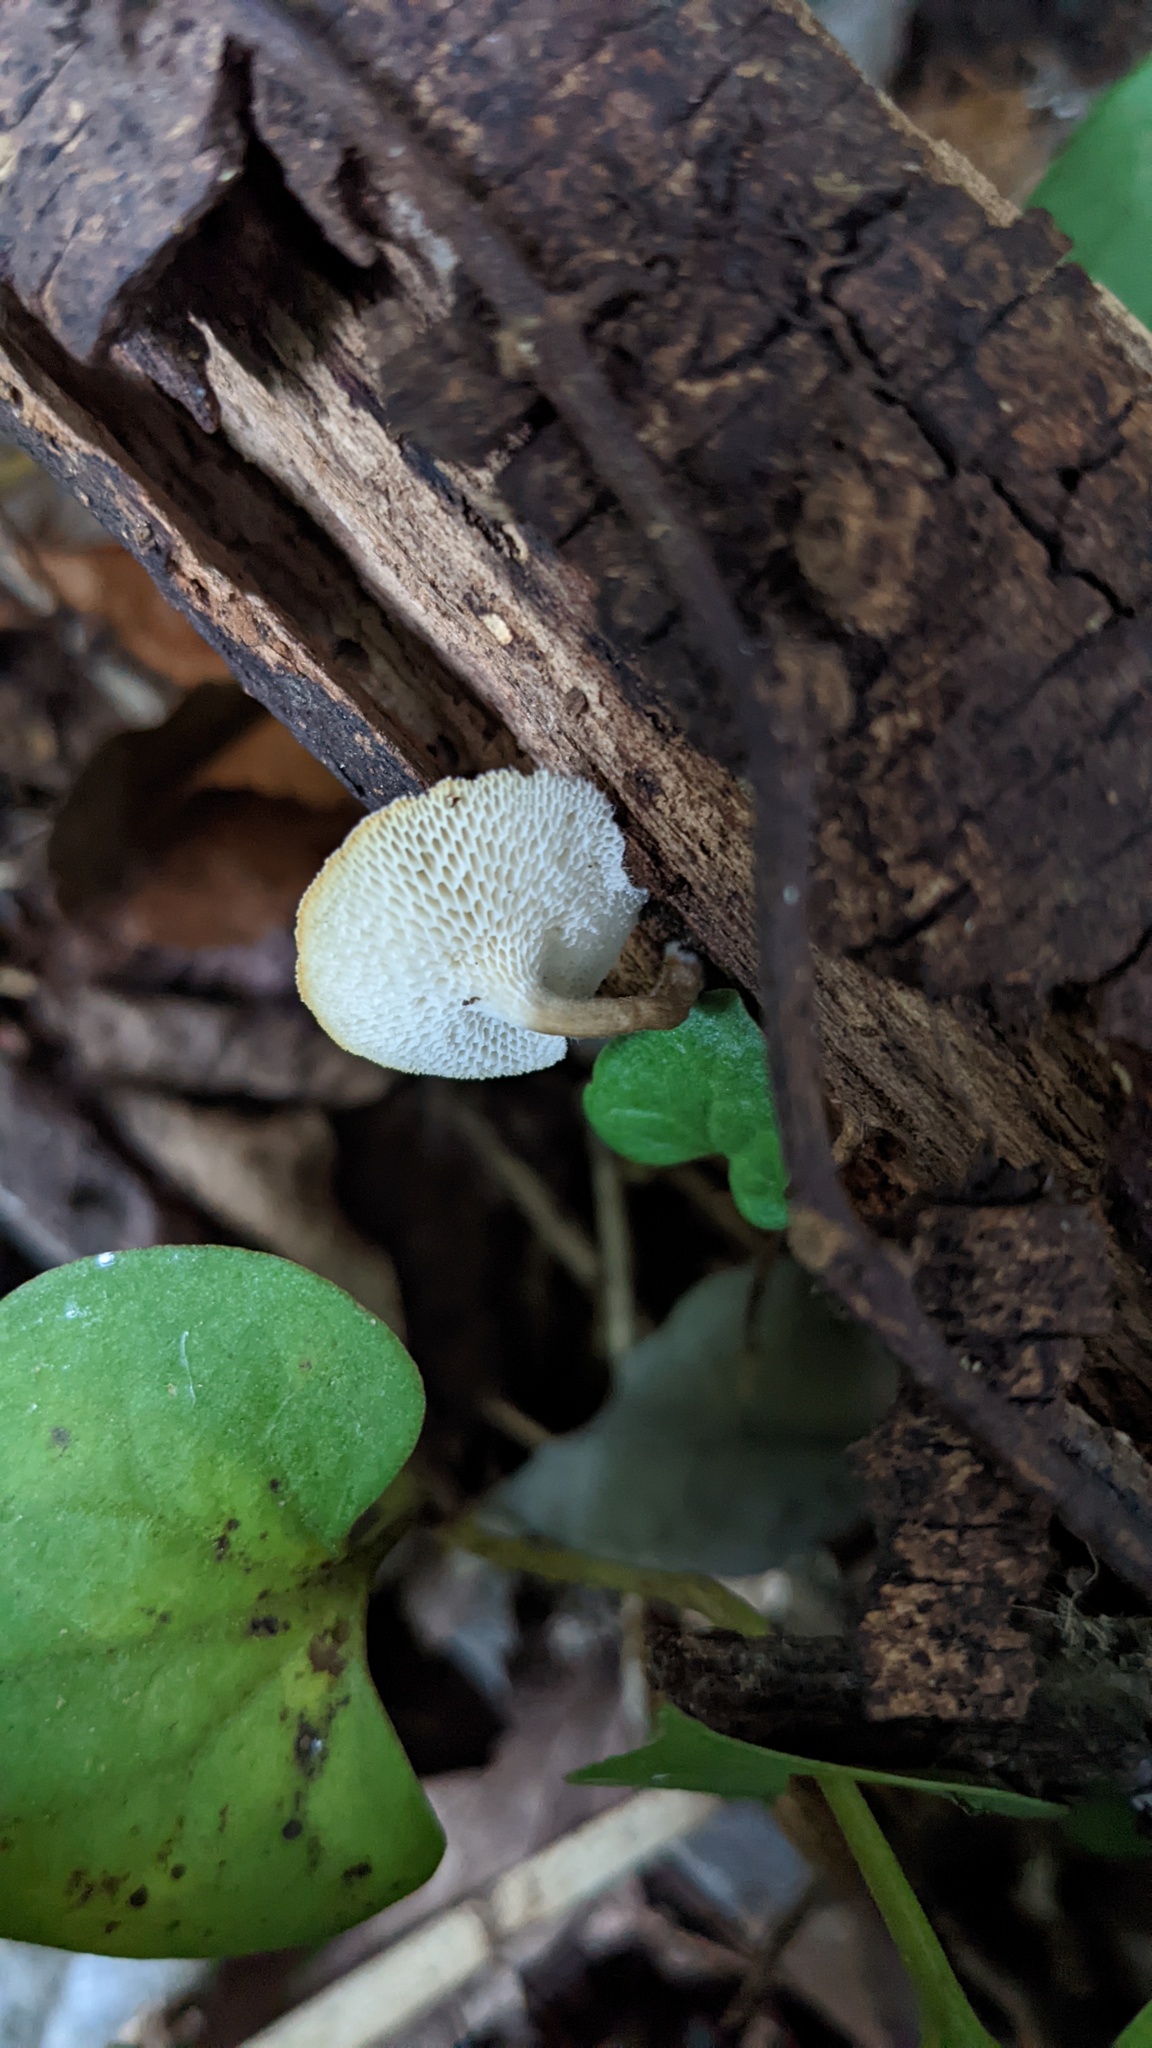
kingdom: Fungi
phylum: Basidiomycota
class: Agaricomycetes
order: Polyporales
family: Polyporaceae
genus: Lentinus
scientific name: Lentinus arcularius
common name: Spring polypore
